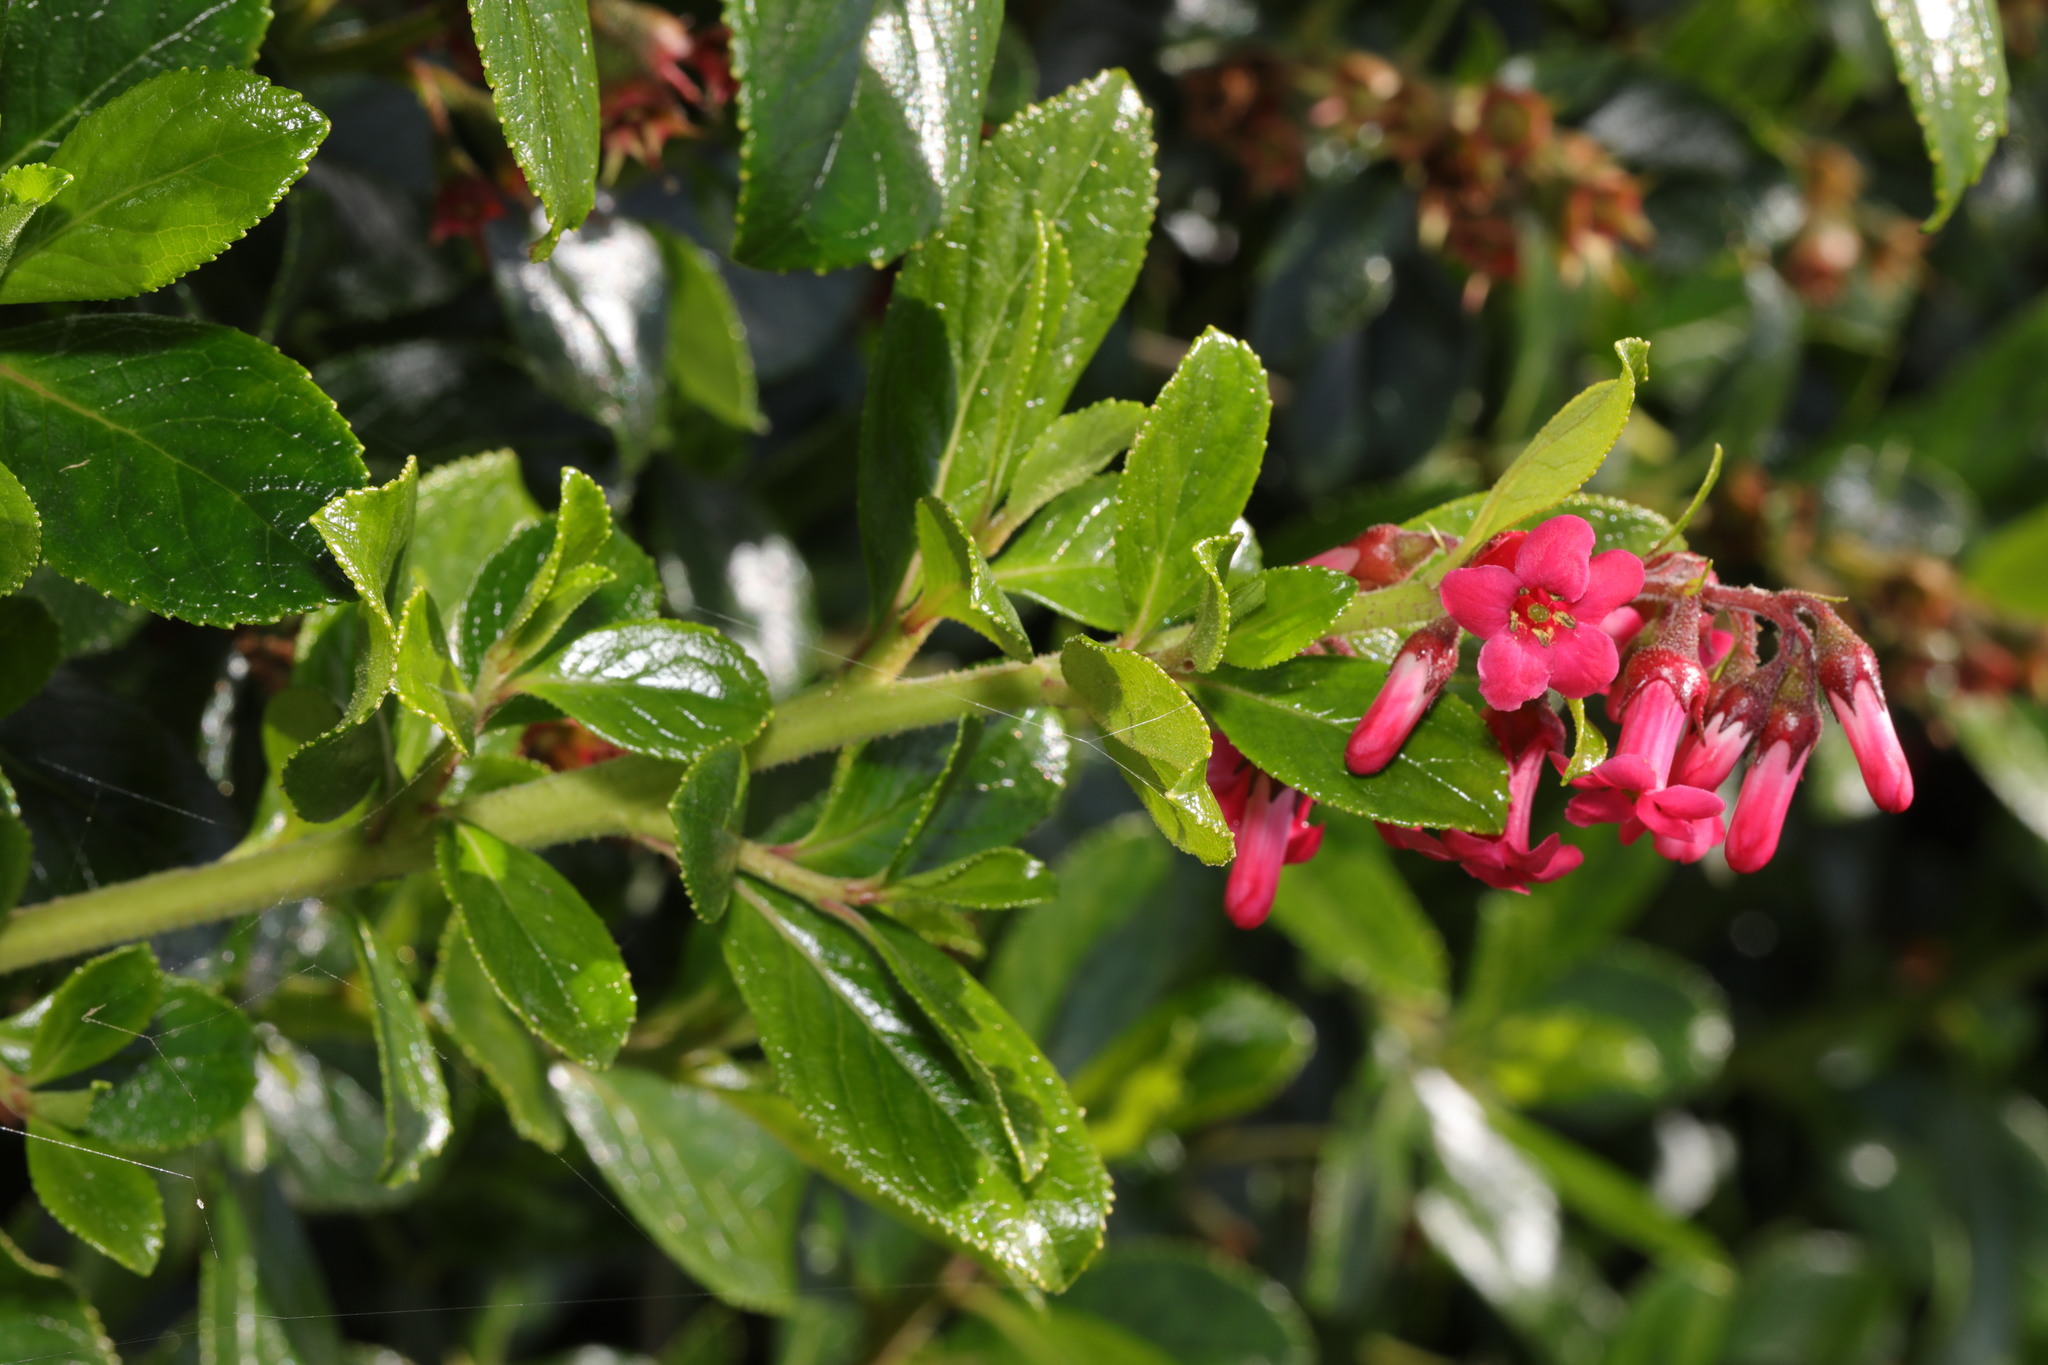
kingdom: Plantae
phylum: Tracheophyta
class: Magnoliopsida
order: Escalloniales
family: Escalloniaceae
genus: Escallonia
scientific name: Escallonia rubra
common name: Redclaws
